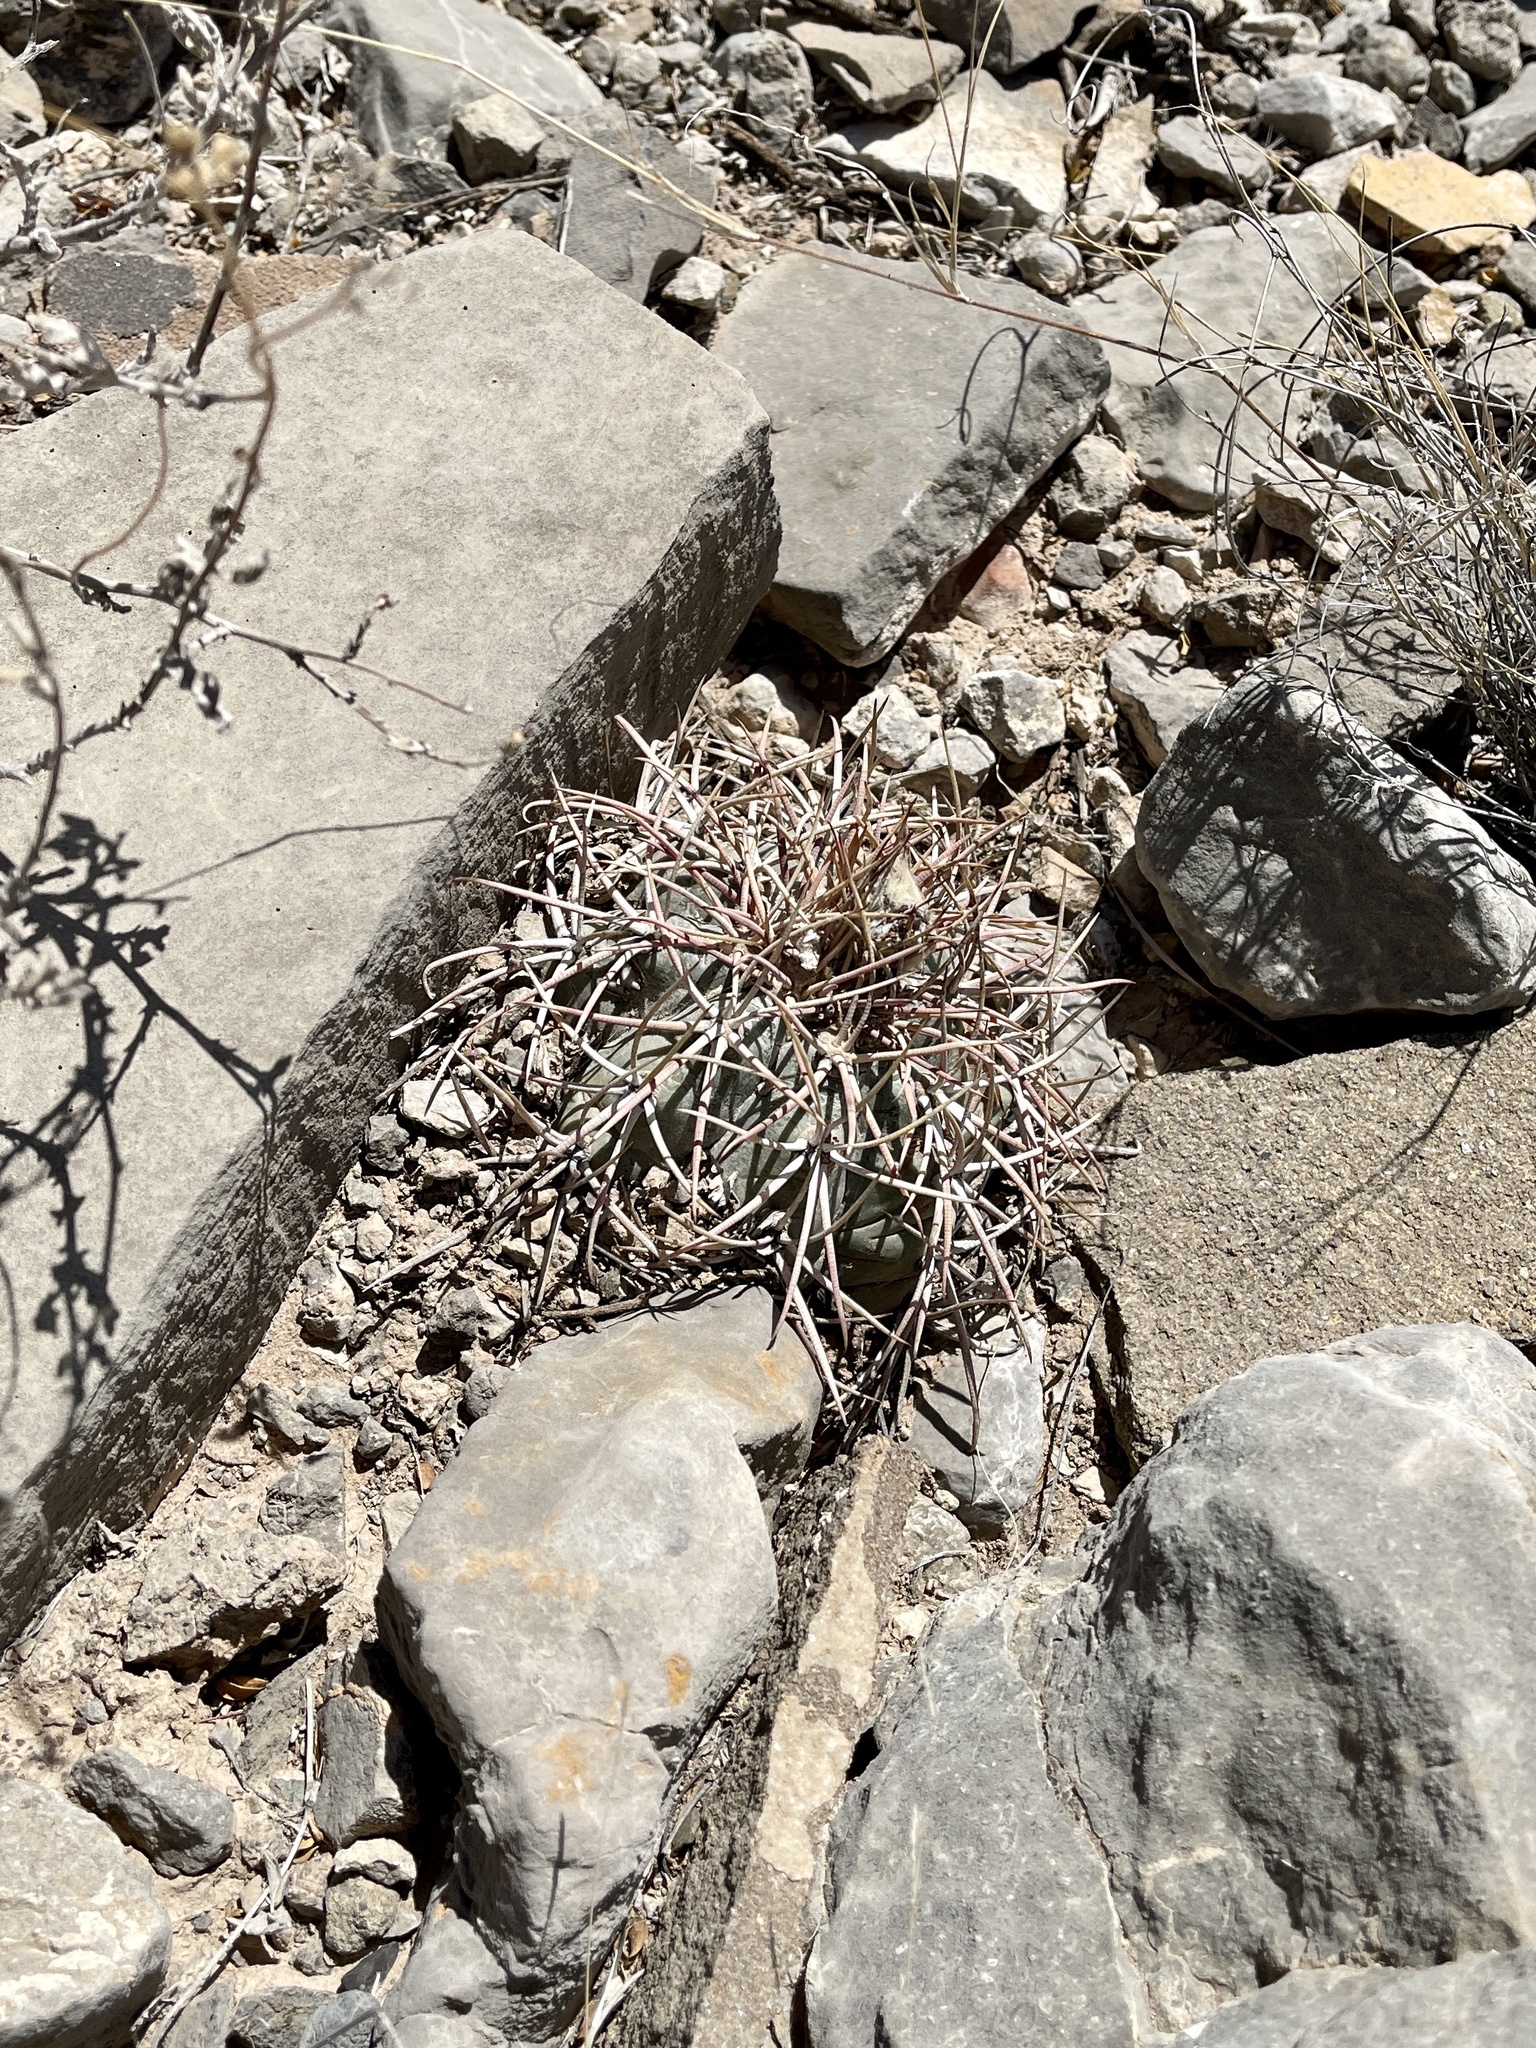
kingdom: Plantae
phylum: Tracheophyta
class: Magnoliopsida
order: Caryophyllales
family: Cactaceae
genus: Echinocactus
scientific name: Echinocactus horizonthalonius
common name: Devilshead
